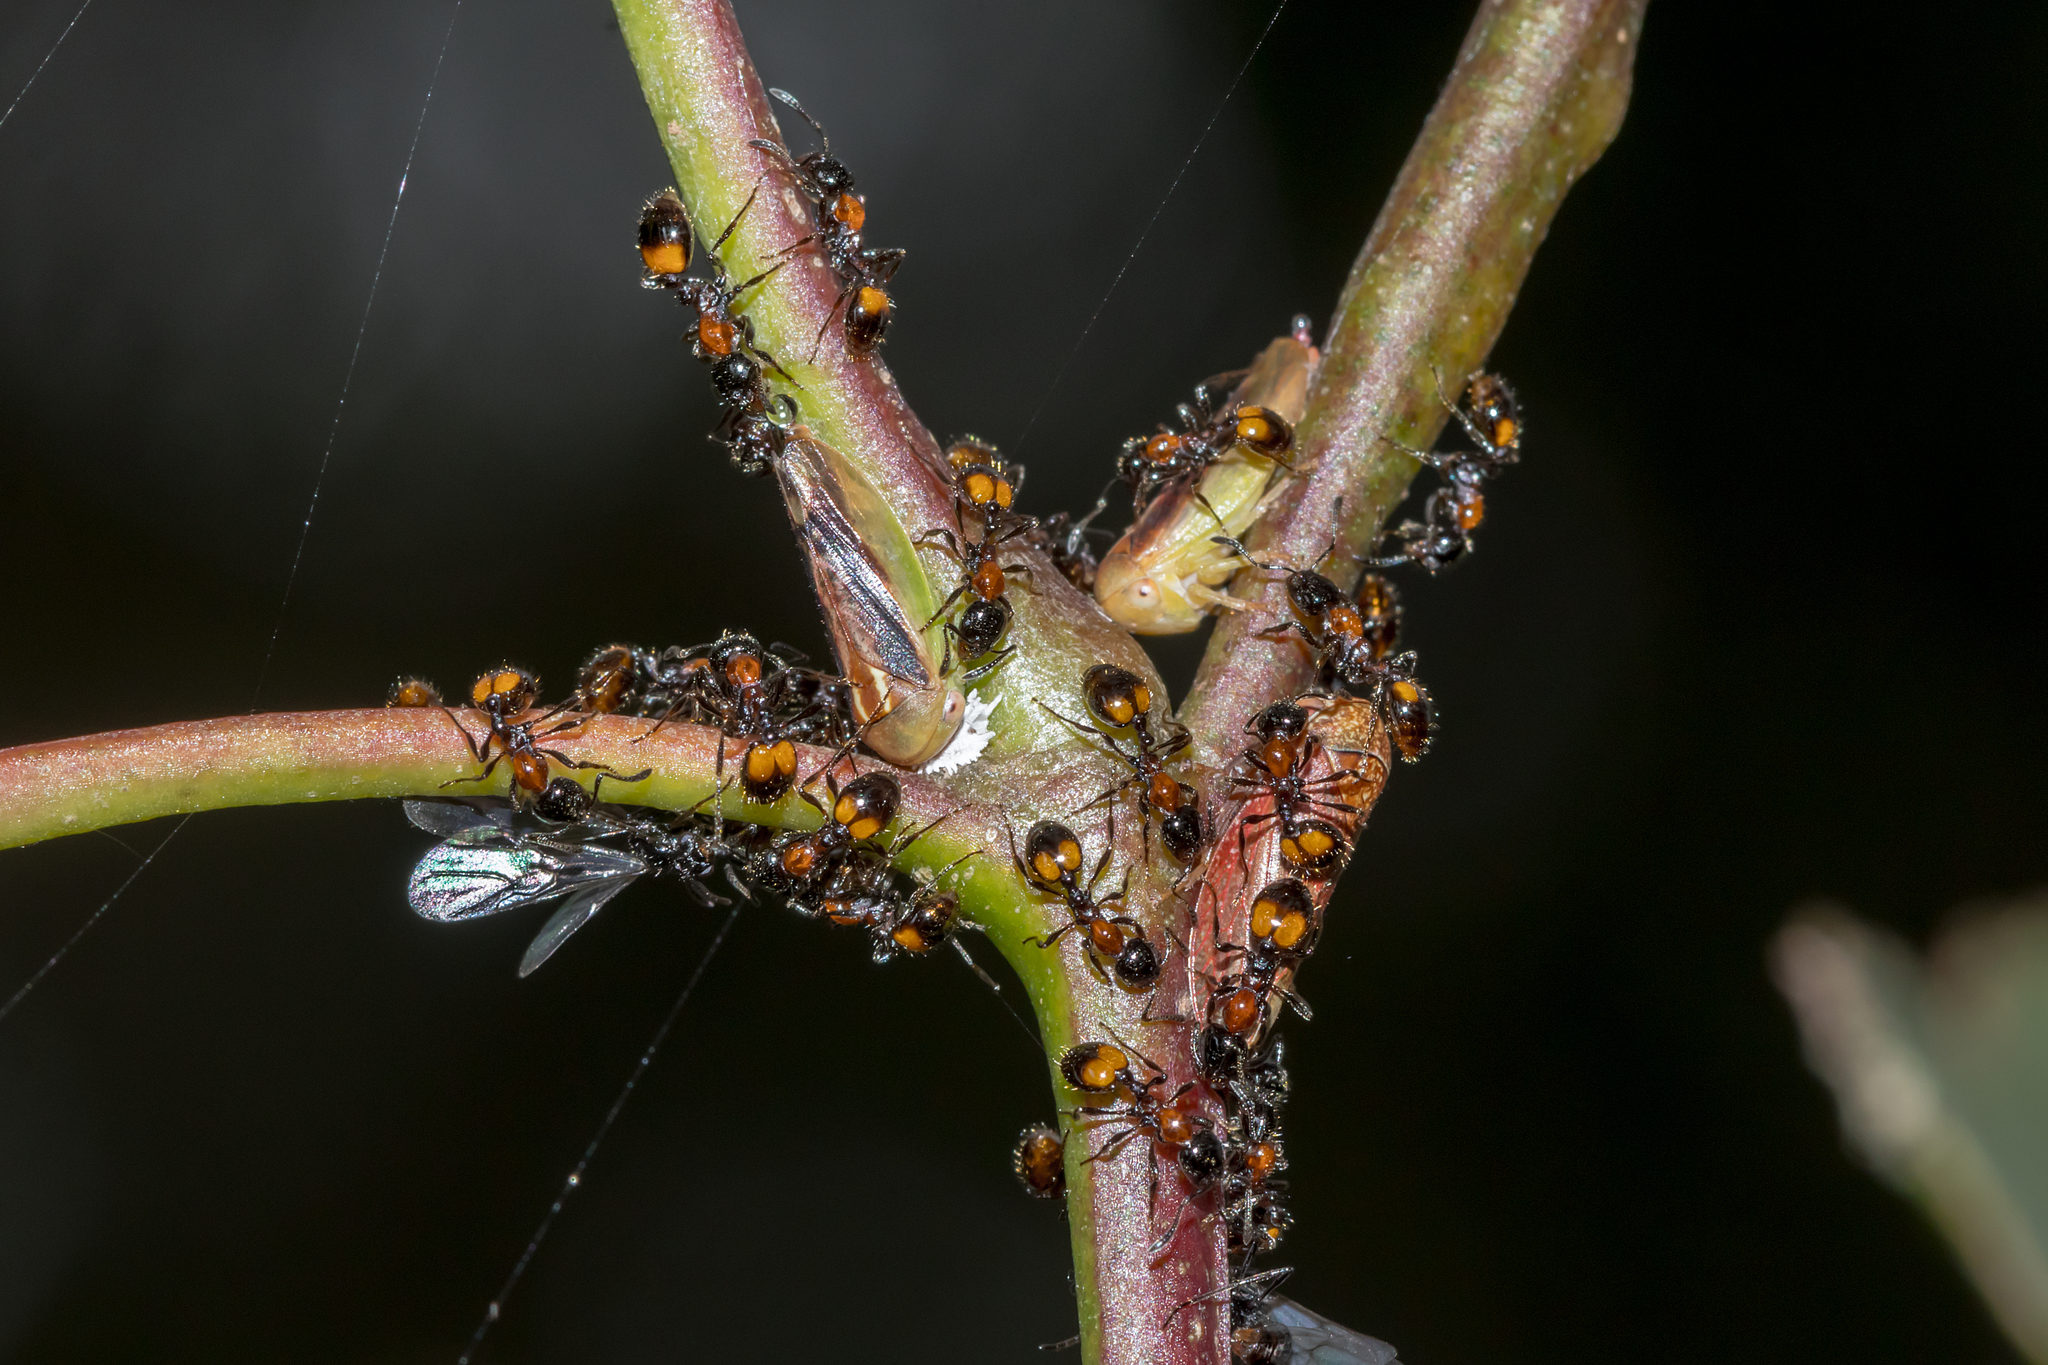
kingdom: Animalia
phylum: Arthropoda
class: Insecta
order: Hymenoptera
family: Formicidae
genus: Chelaner
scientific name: Chelaner
